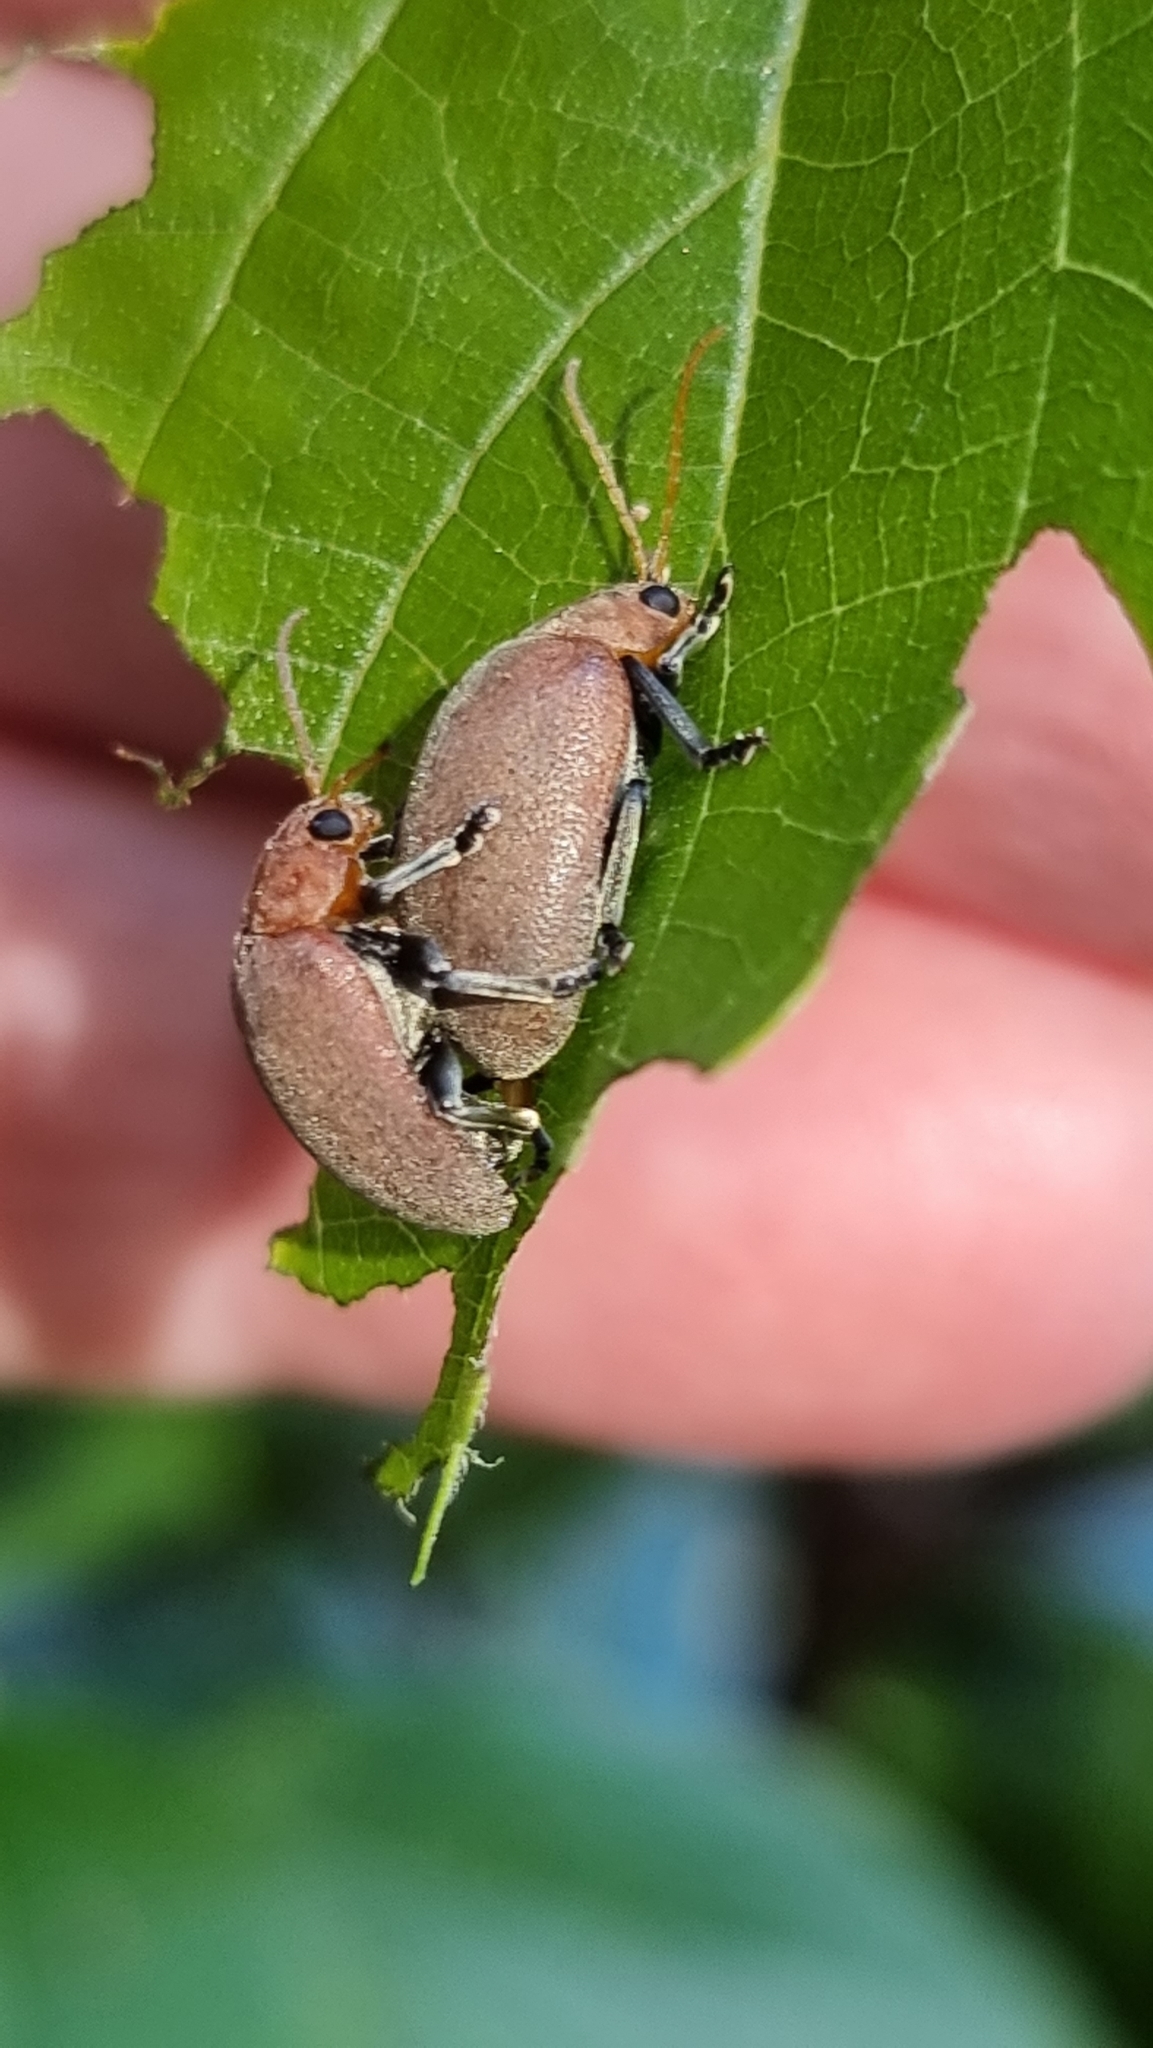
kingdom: Animalia
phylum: Arthropoda
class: Insecta
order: Coleoptera
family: Chrysomelidae
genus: Menippus
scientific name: Menippus
